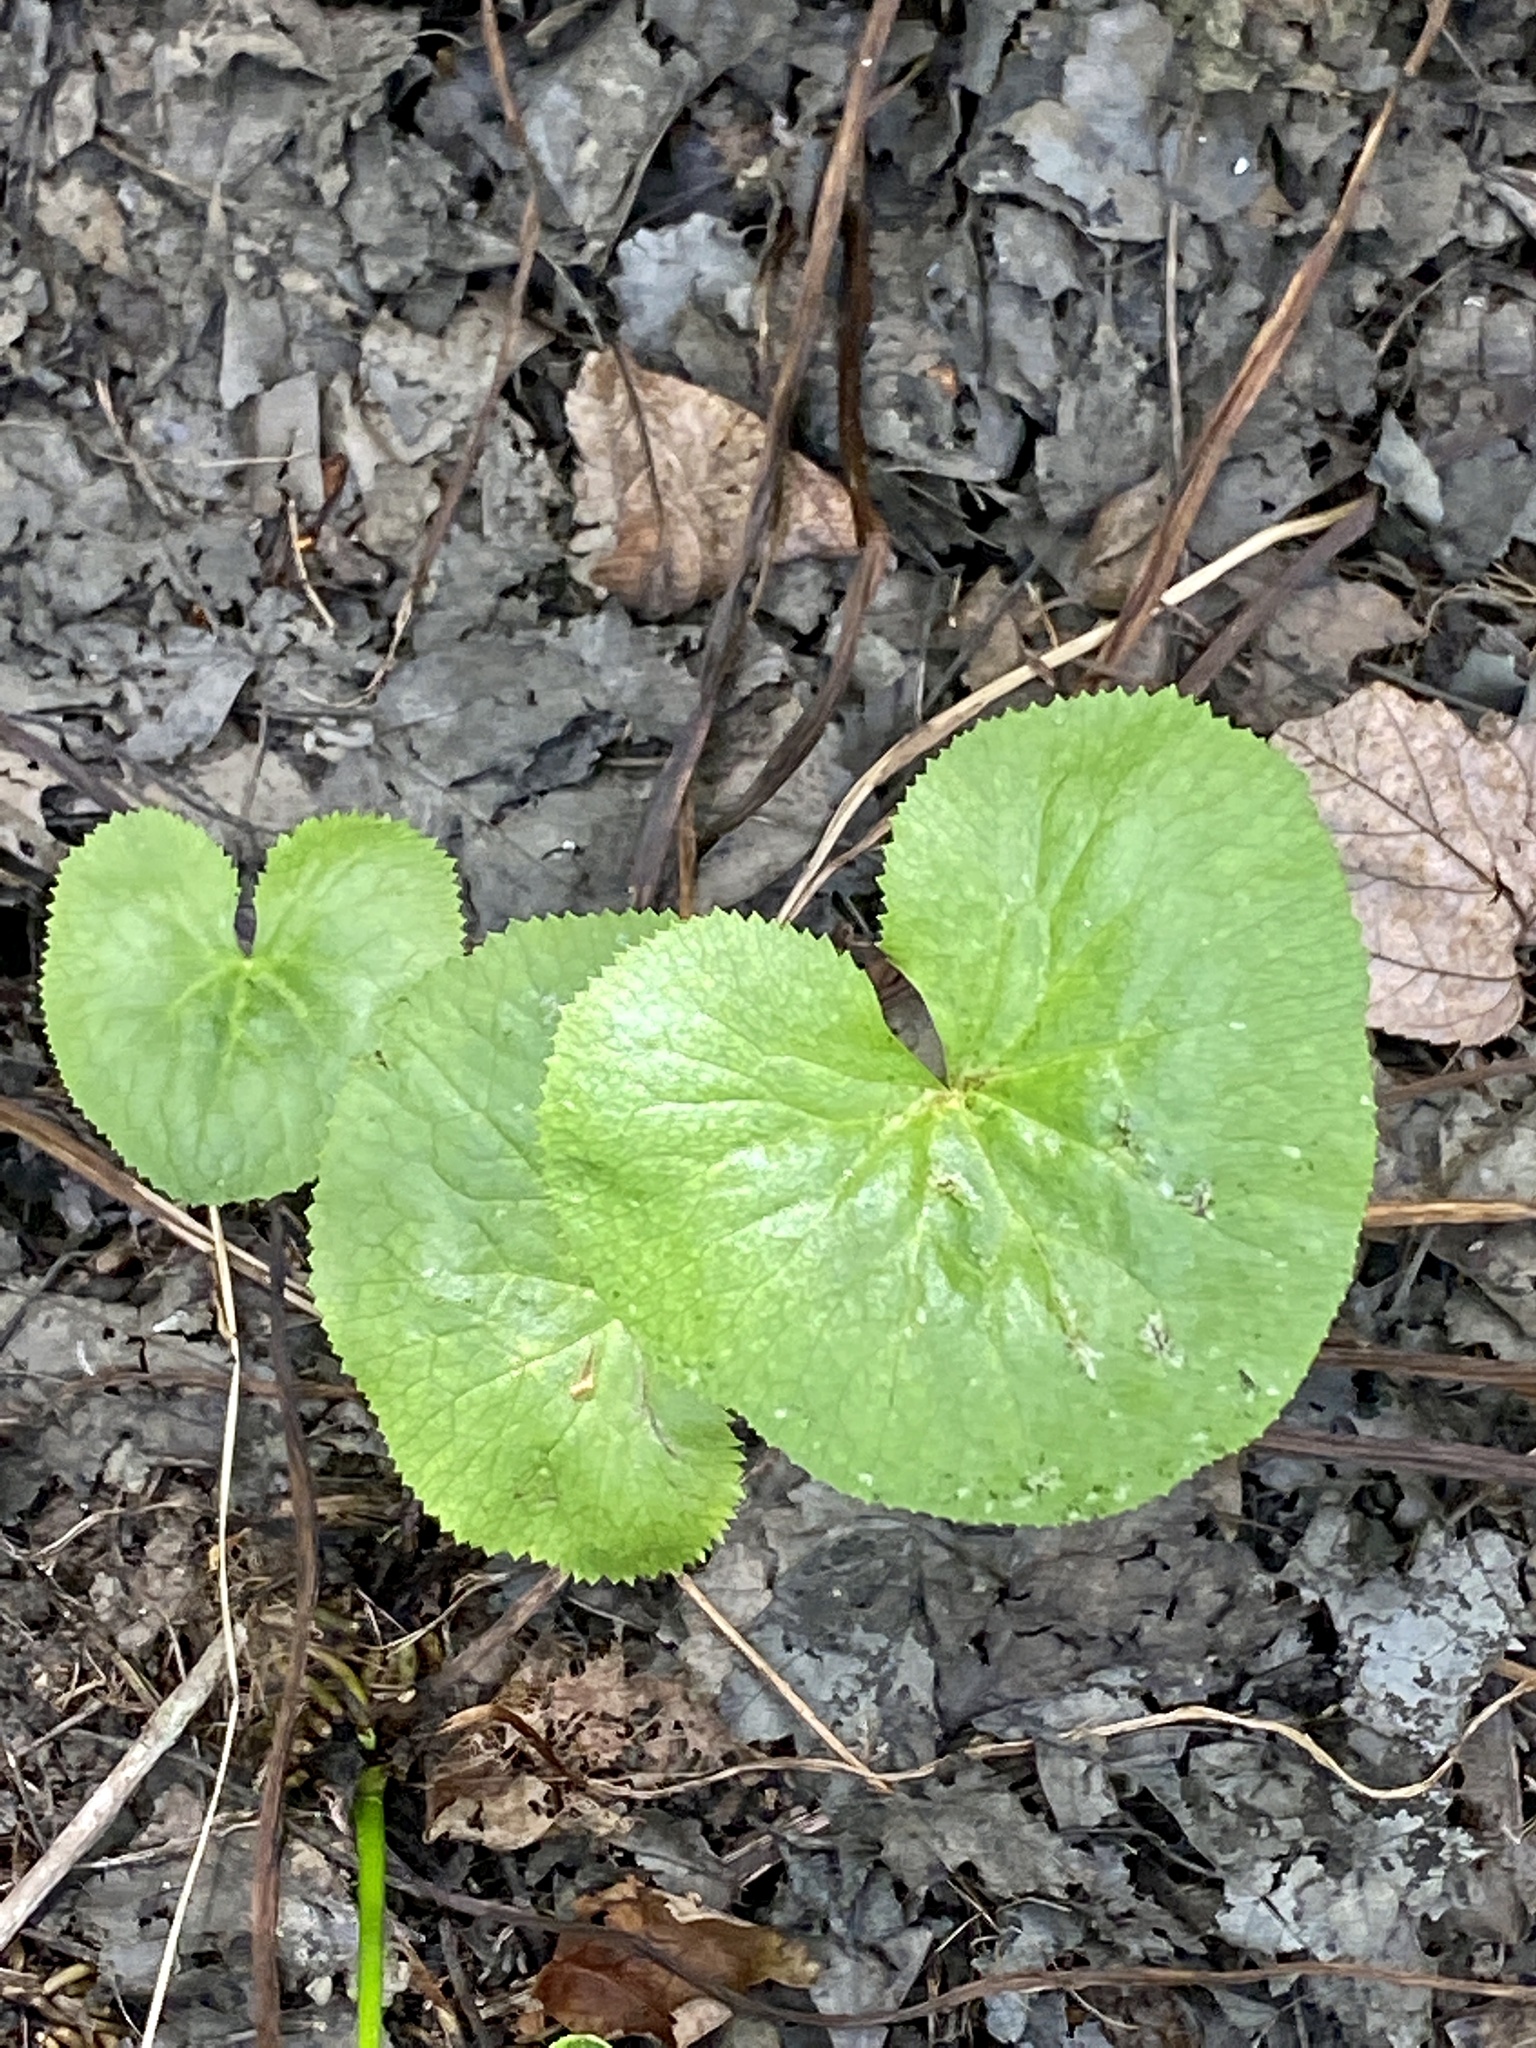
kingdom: Plantae
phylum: Tracheophyta
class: Magnoliopsida
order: Ranunculales
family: Ranunculaceae
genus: Caltha
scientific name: Caltha palustris
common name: Marsh marigold
